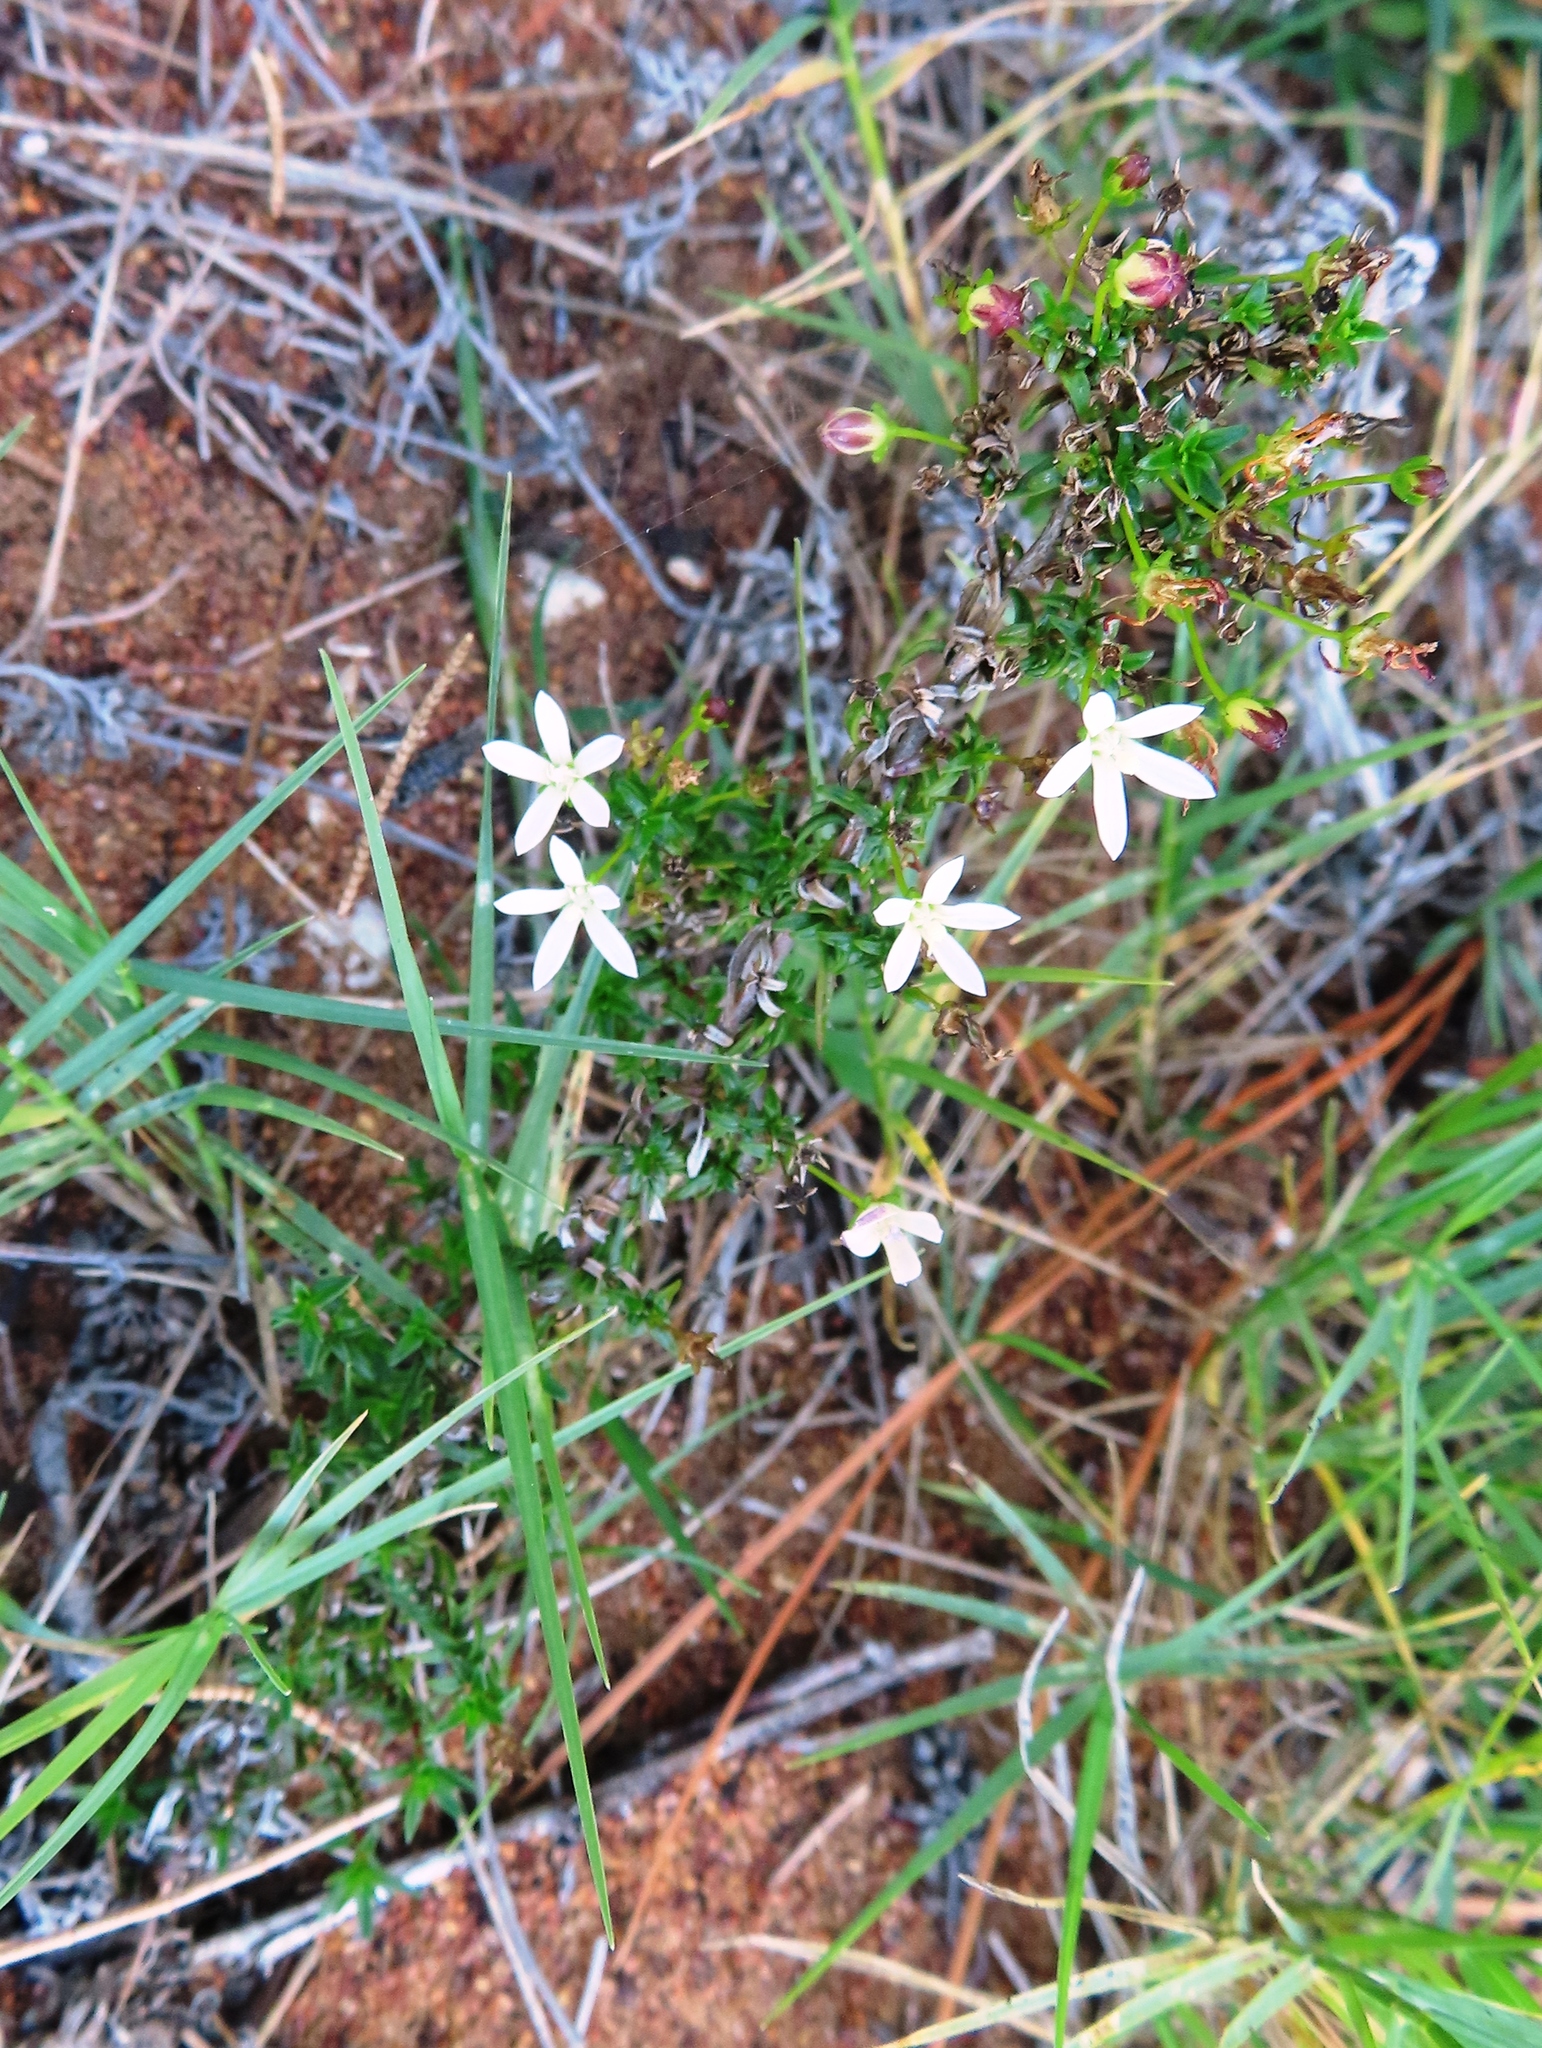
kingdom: Plantae
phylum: Tracheophyta
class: Magnoliopsida
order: Asterales
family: Campanulaceae
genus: Wahlenbergia
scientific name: Wahlenbergia tenella
